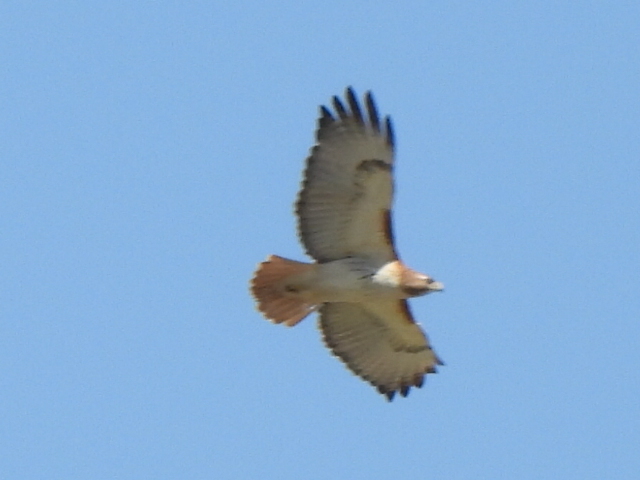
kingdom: Animalia
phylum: Chordata
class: Aves
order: Accipitriformes
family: Accipitridae
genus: Buteo
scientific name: Buteo jamaicensis
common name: Red-tailed hawk
